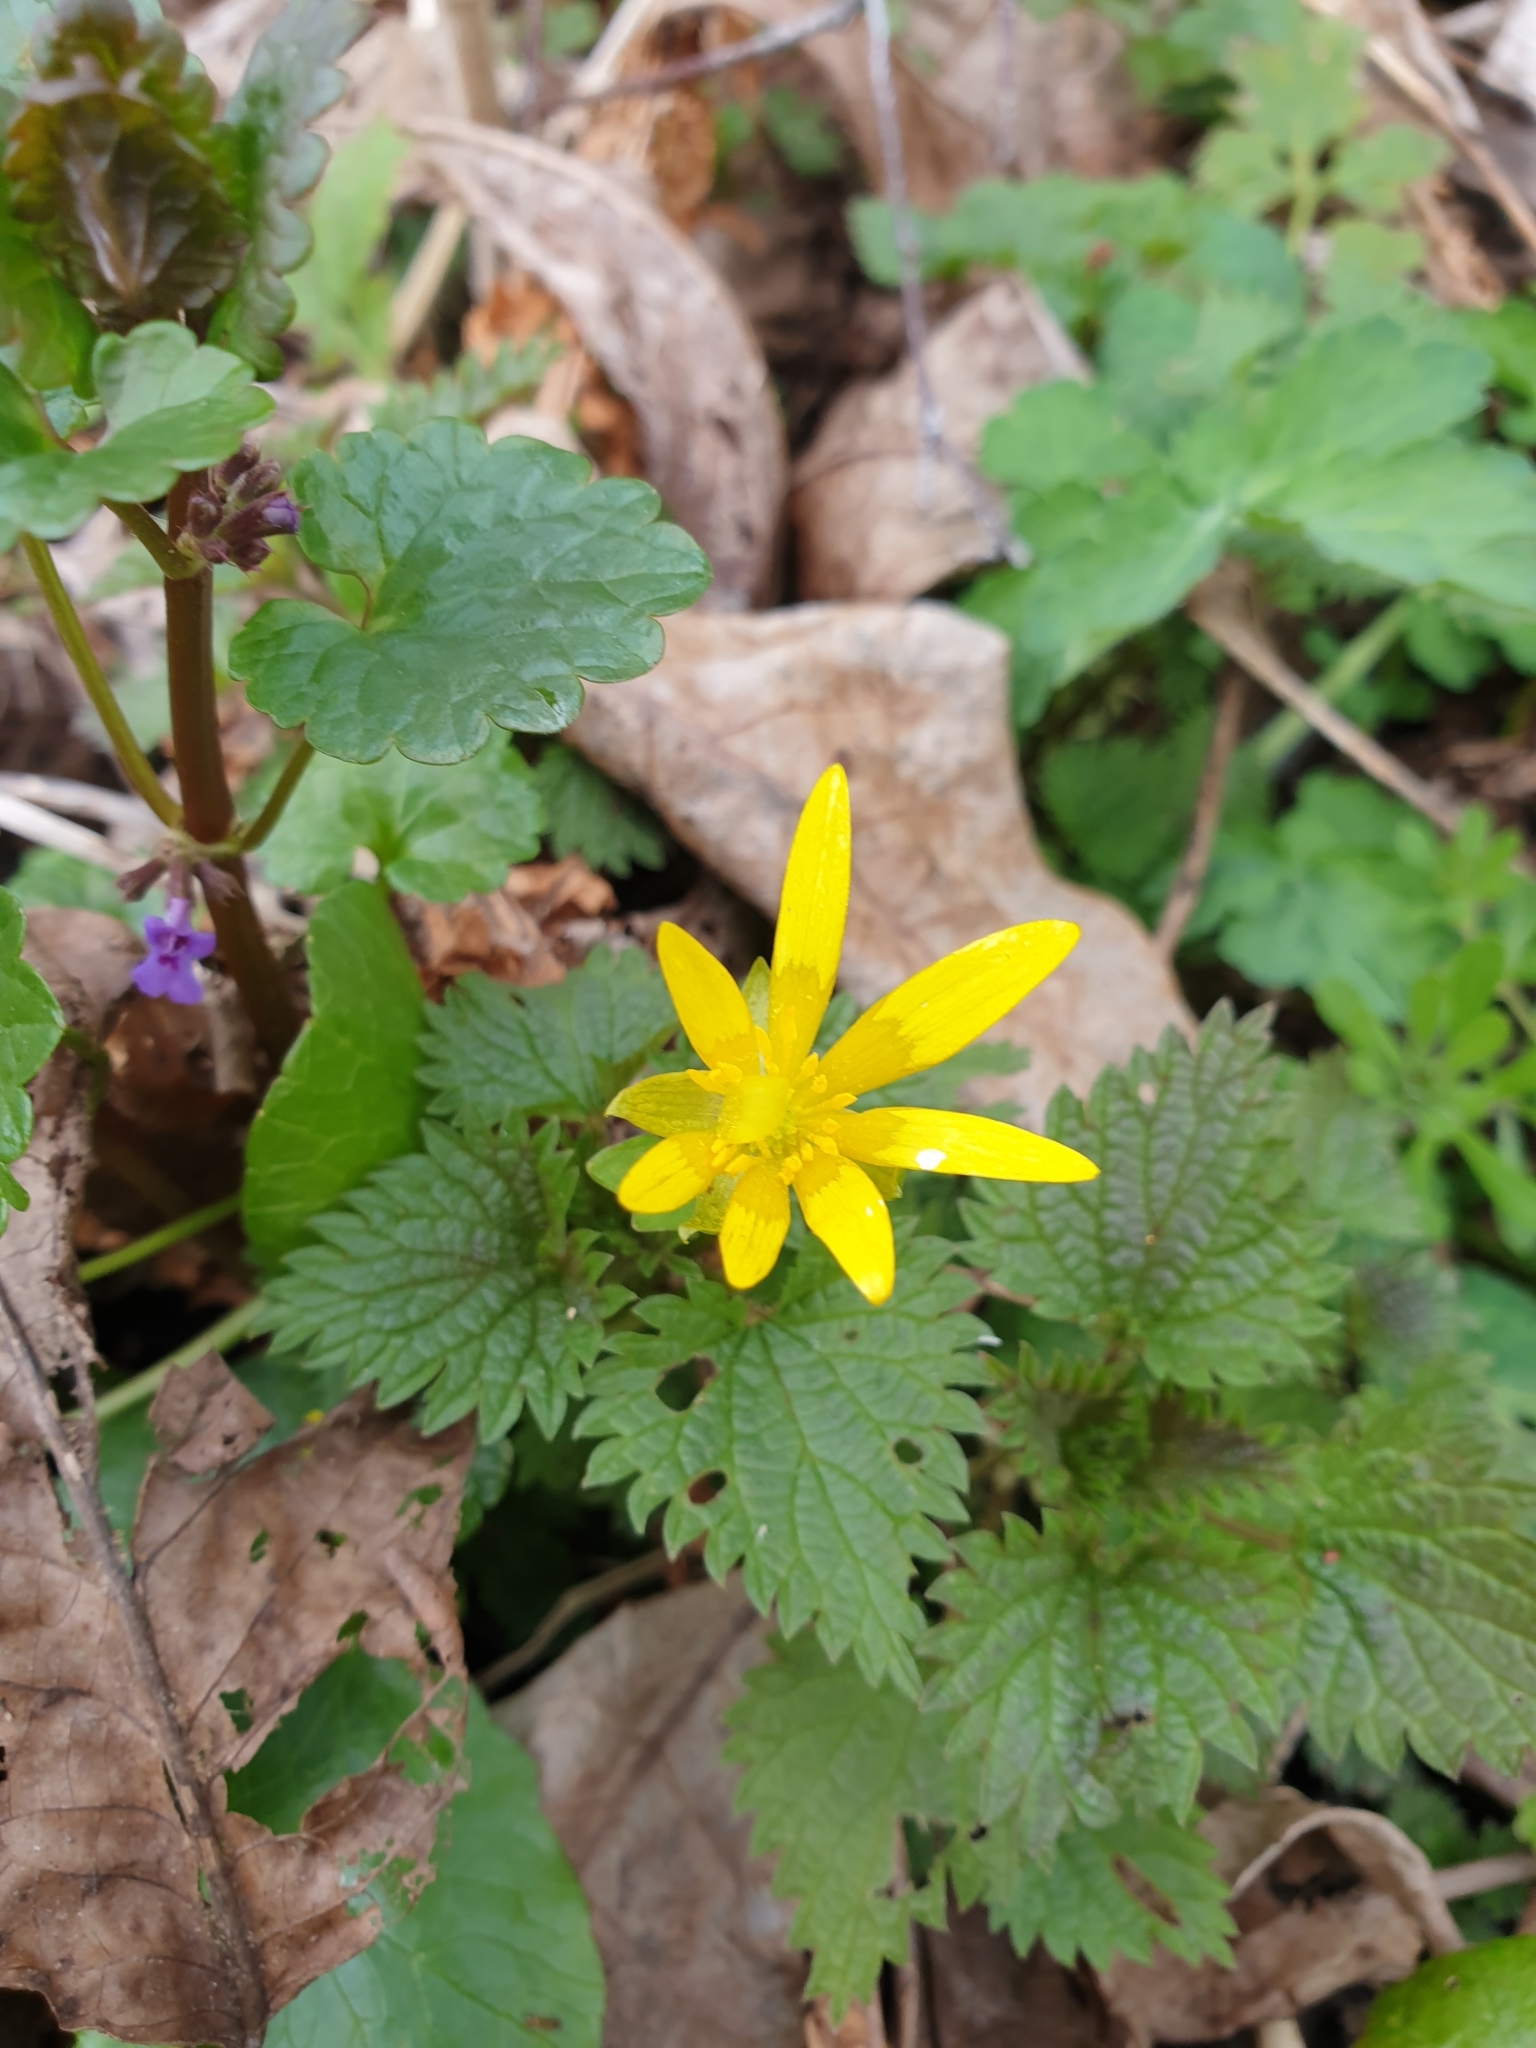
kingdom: Plantae
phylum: Tracheophyta
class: Magnoliopsida
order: Ranunculales
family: Ranunculaceae
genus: Ficaria
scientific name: Ficaria verna
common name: Lesser celandine
